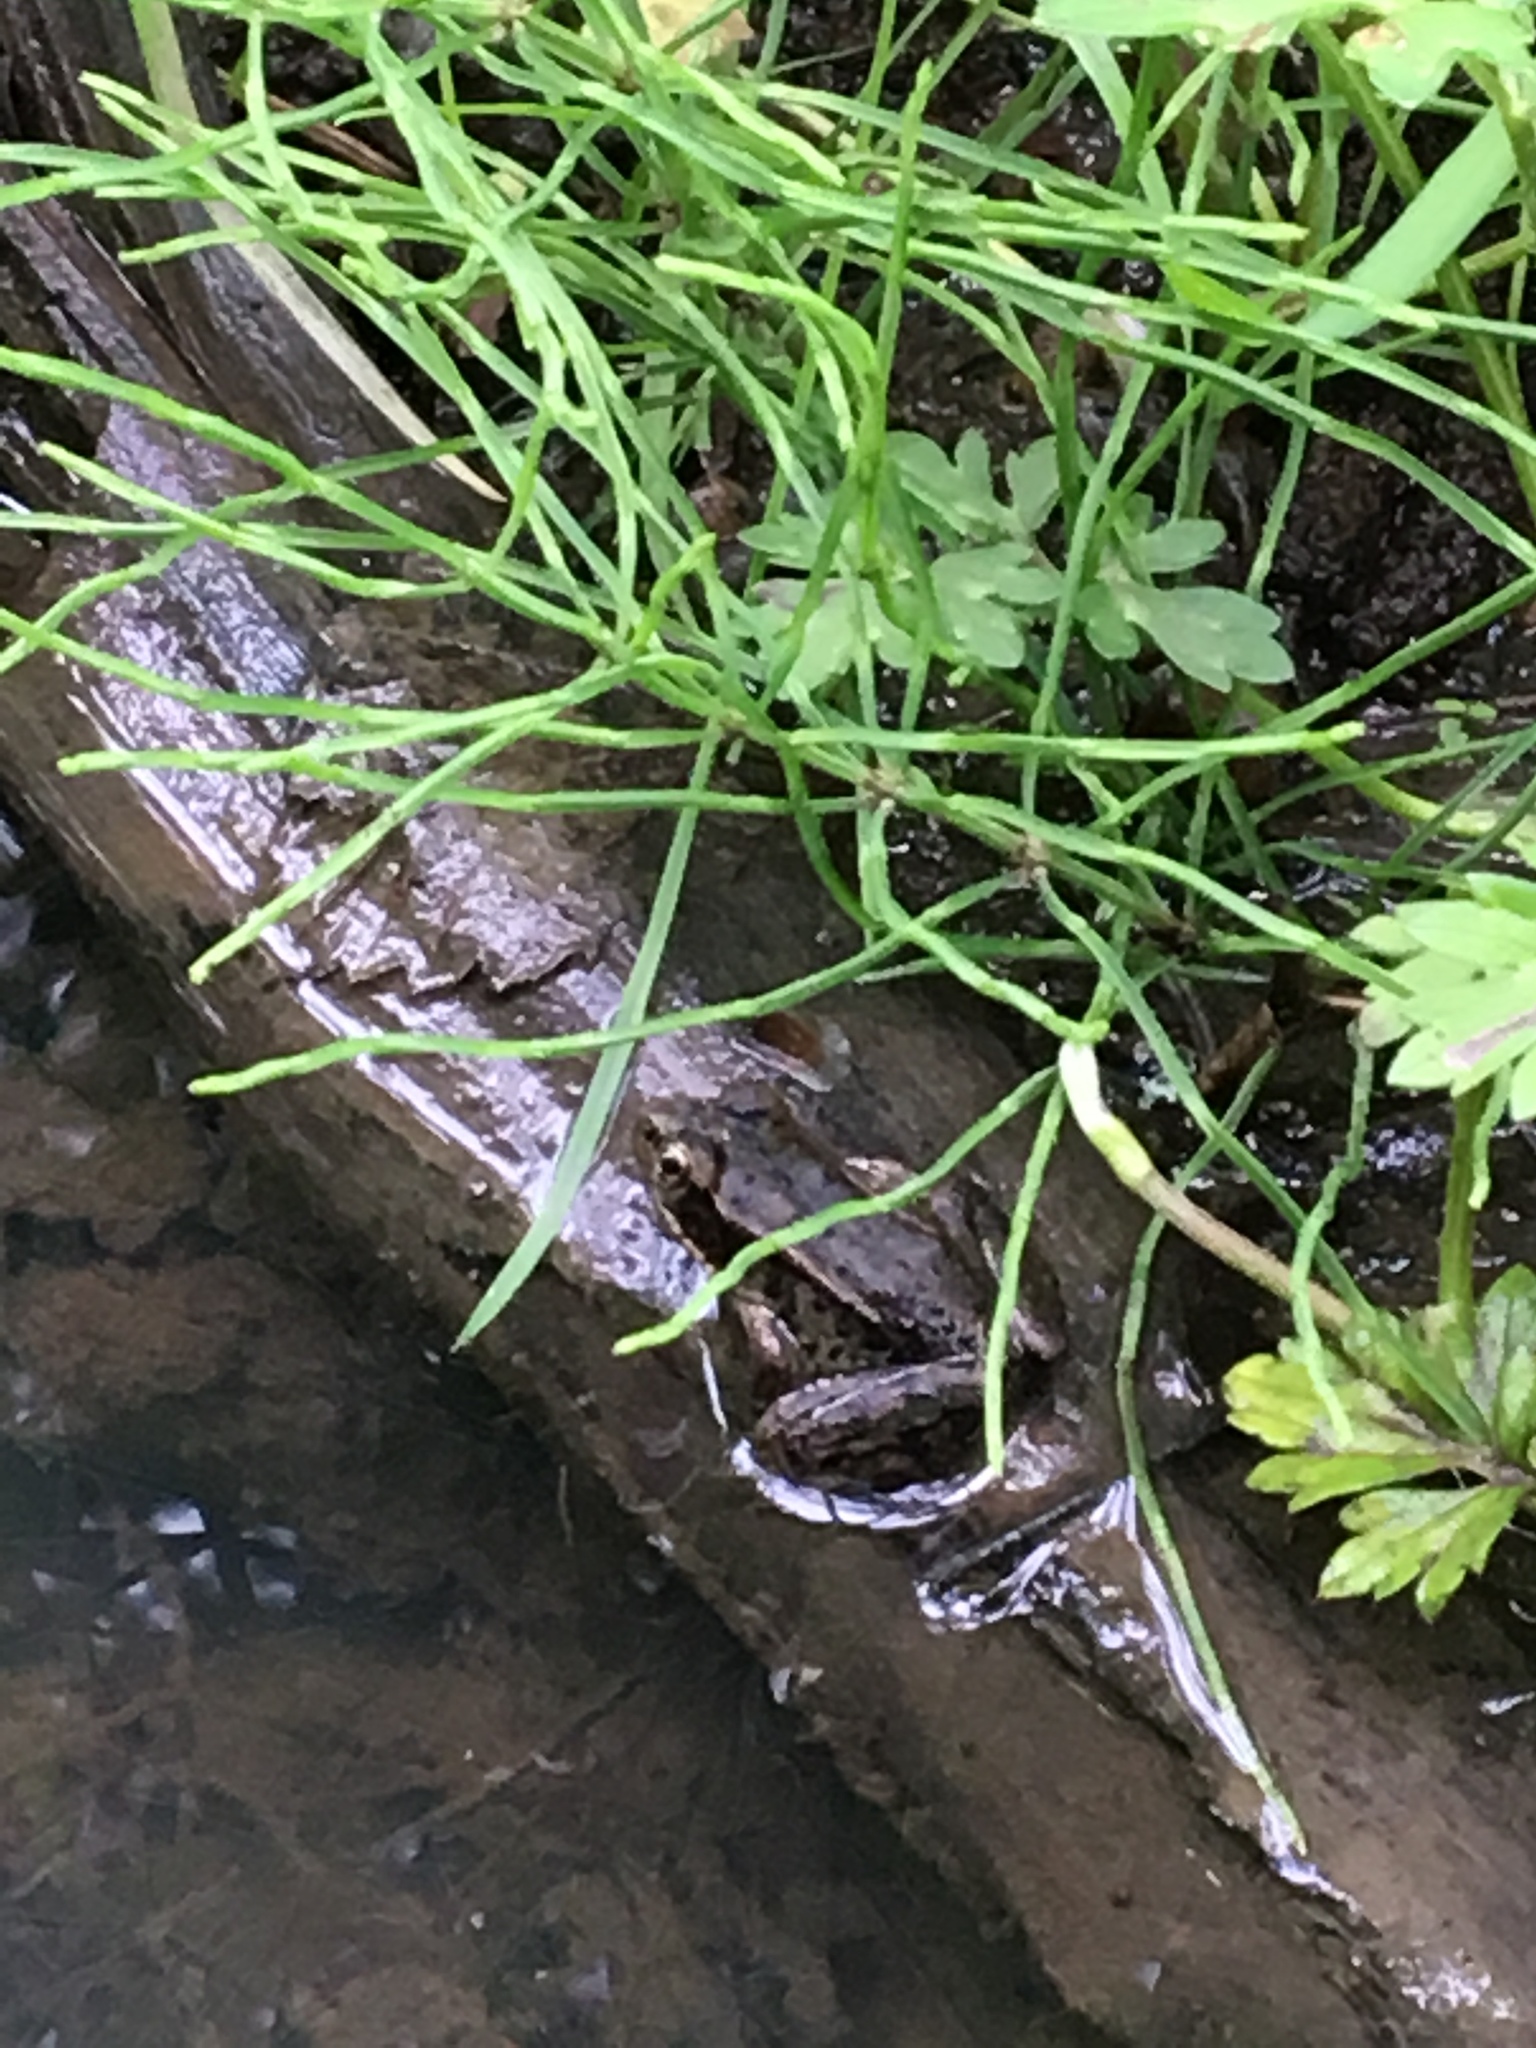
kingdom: Animalia
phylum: Chordata
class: Amphibia
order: Anura
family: Ranidae
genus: Rana
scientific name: Rana aurora
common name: Red-legged frog
